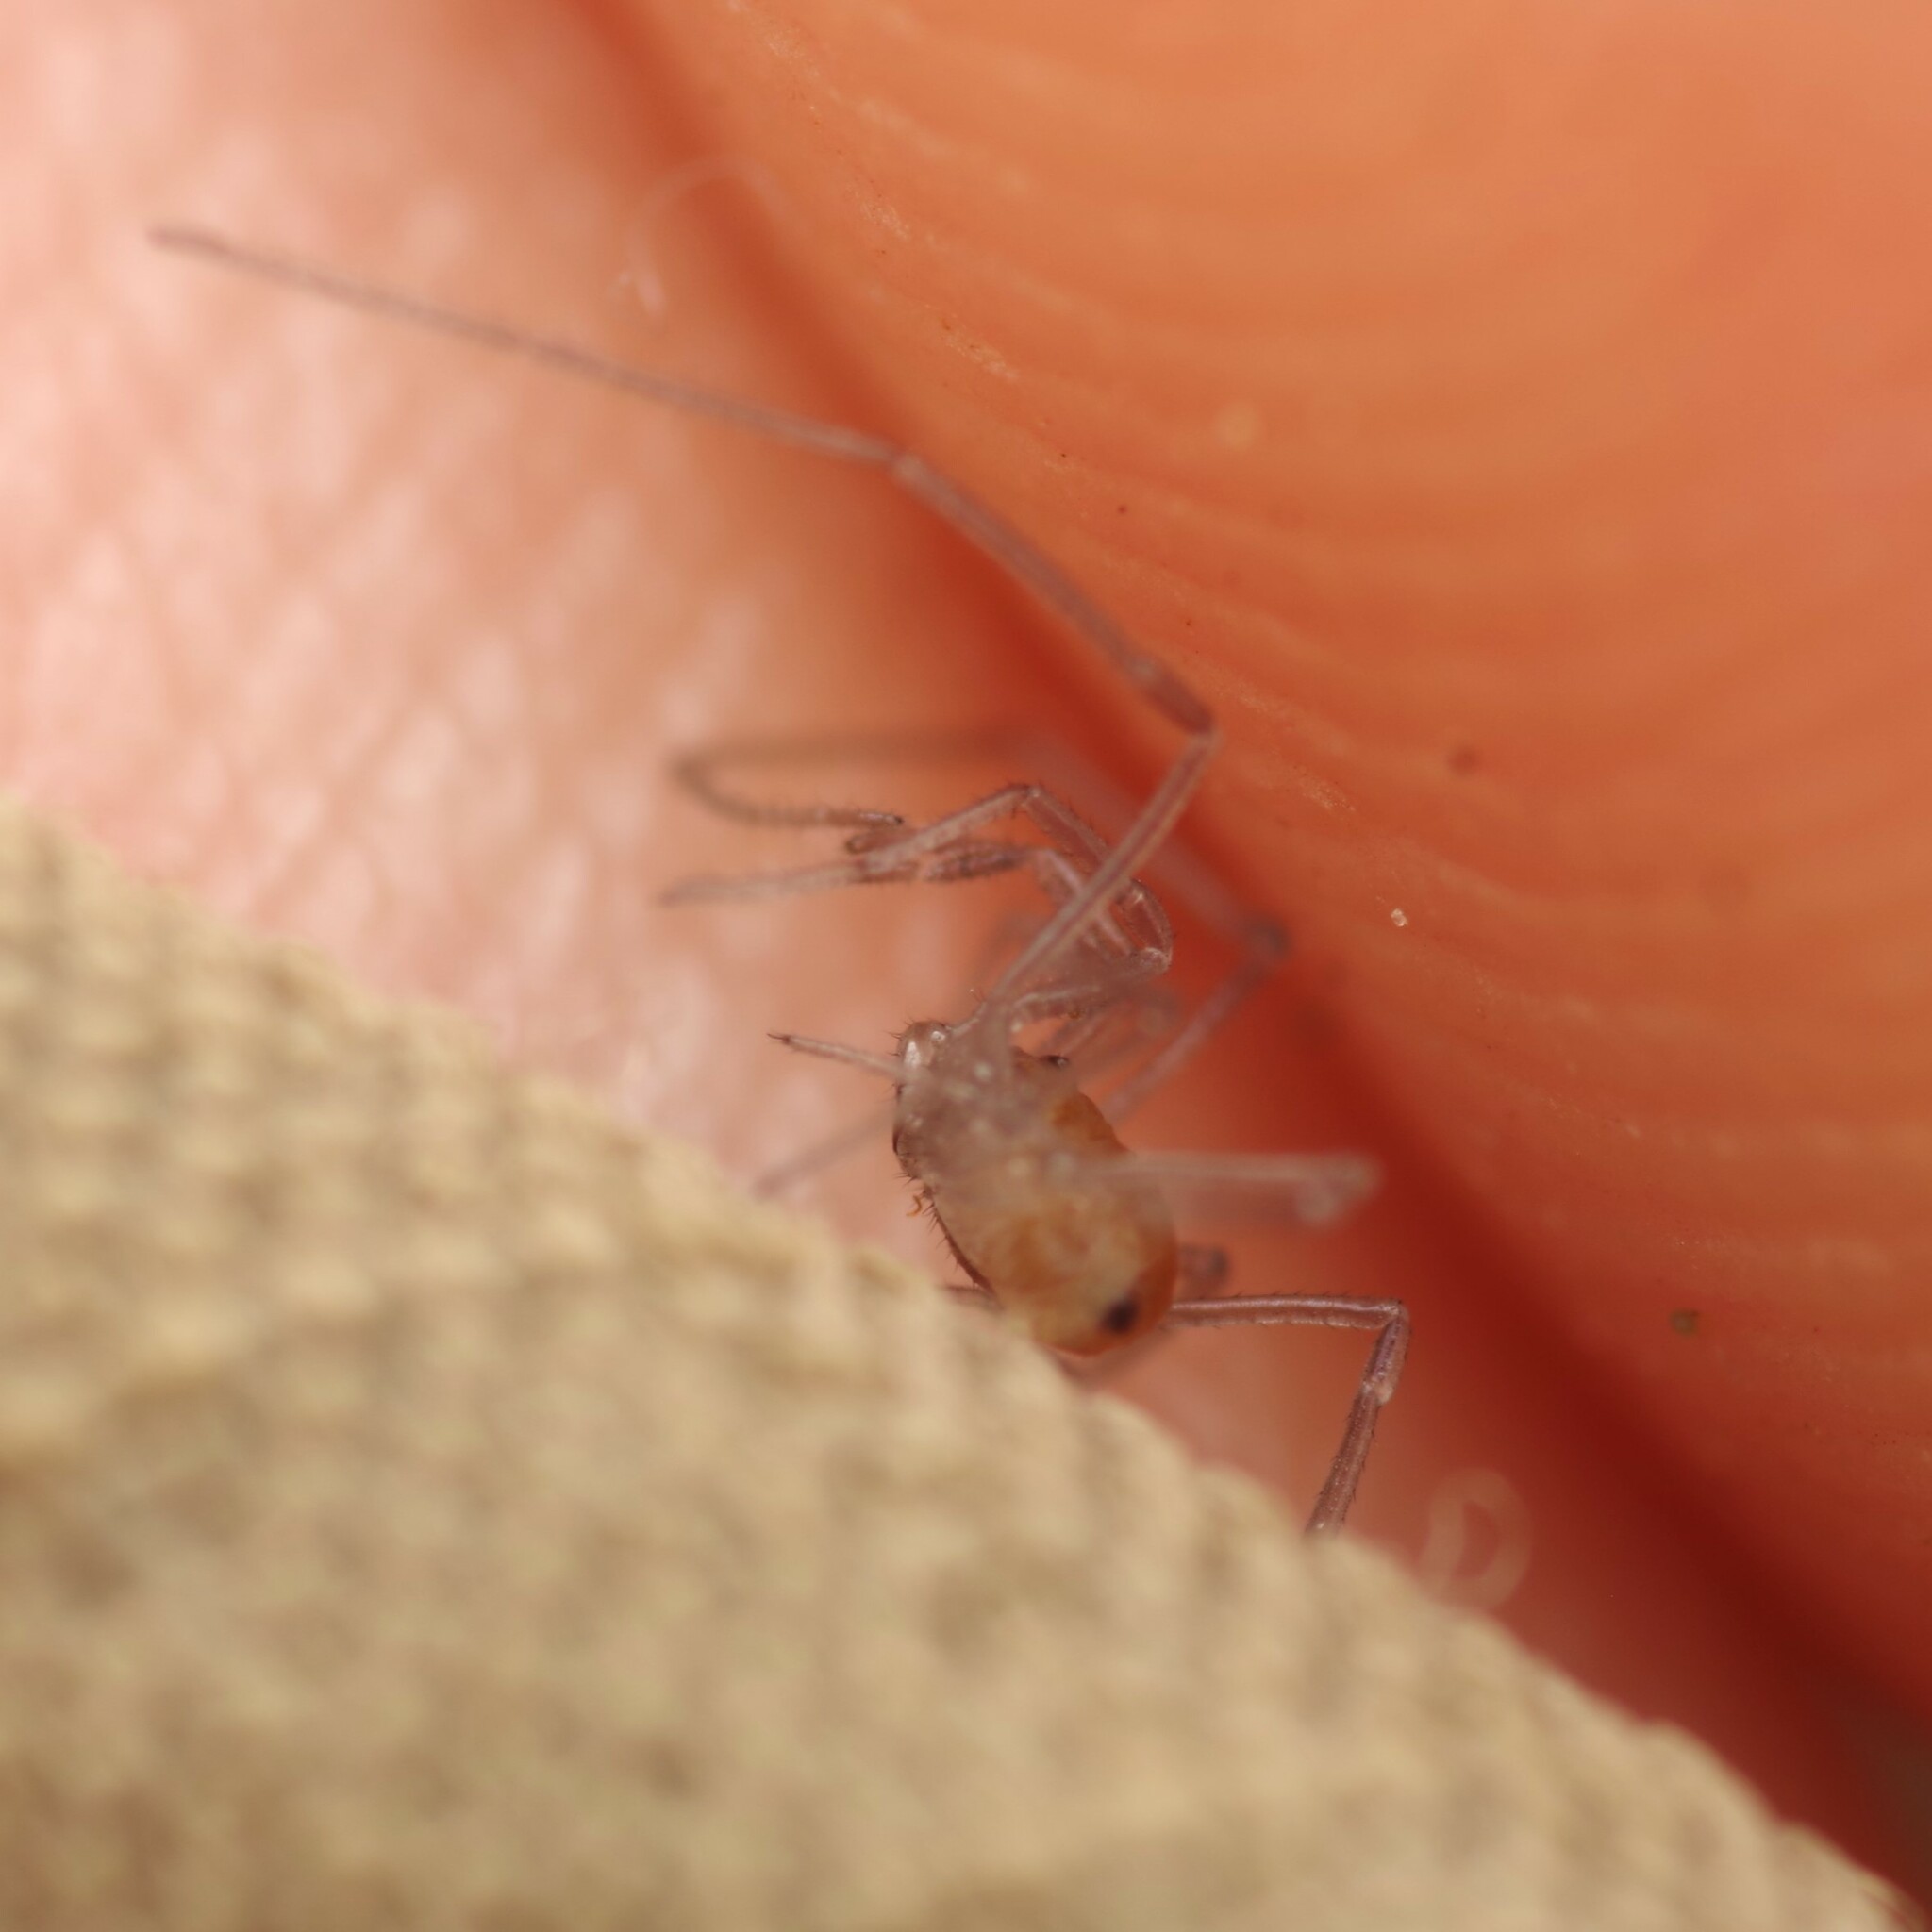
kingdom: Animalia
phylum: Arthropoda
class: Arachnida
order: Opiliones
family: Nemastomatidae
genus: Mitostoma
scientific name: Mitostoma chrysomelas
